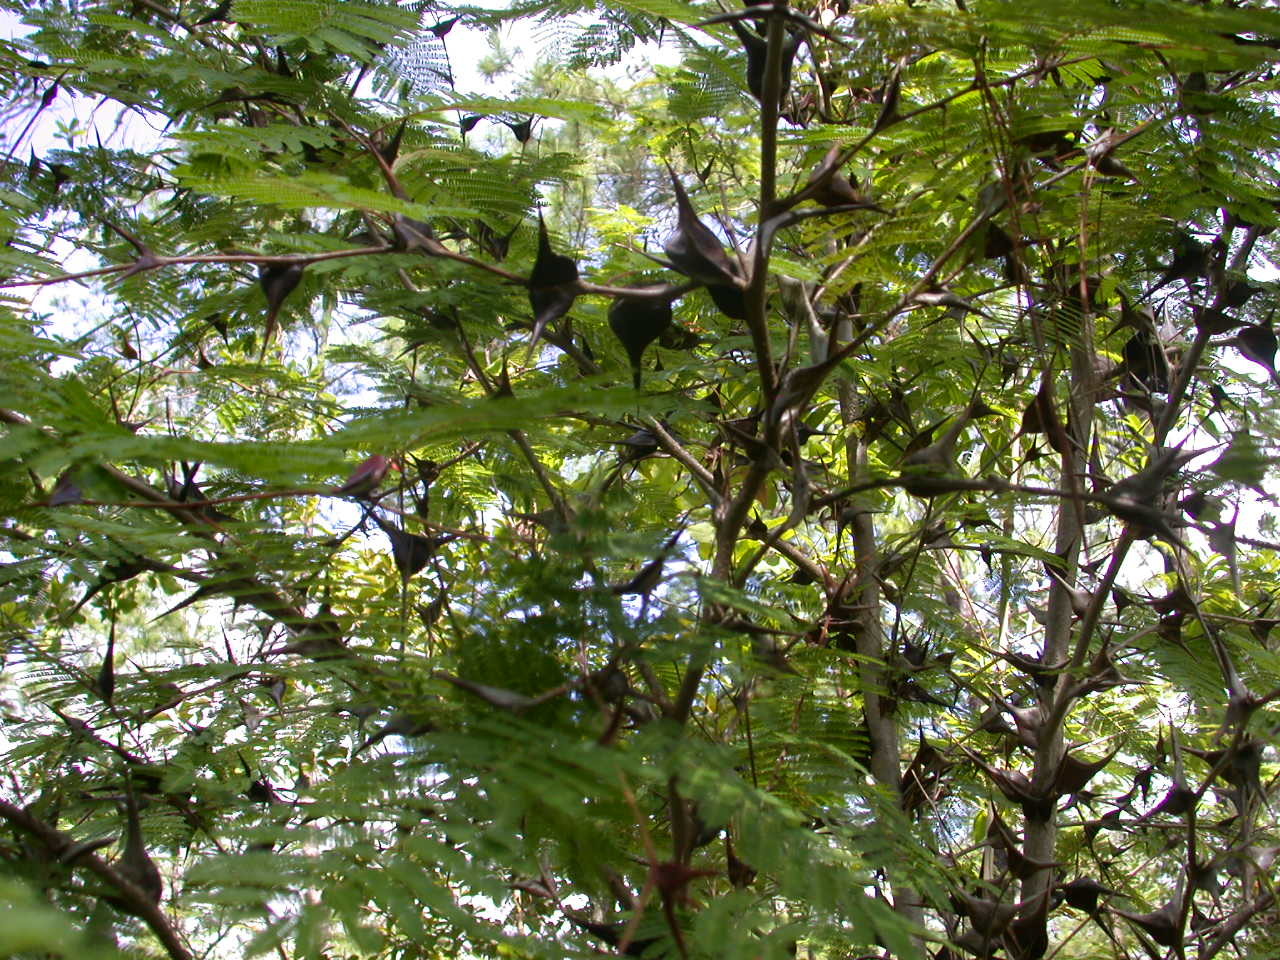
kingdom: Plantae
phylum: Tracheophyta
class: Magnoliopsida
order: Fabales
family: Fabaceae
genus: Vachellia
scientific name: Vachellia hindsii
